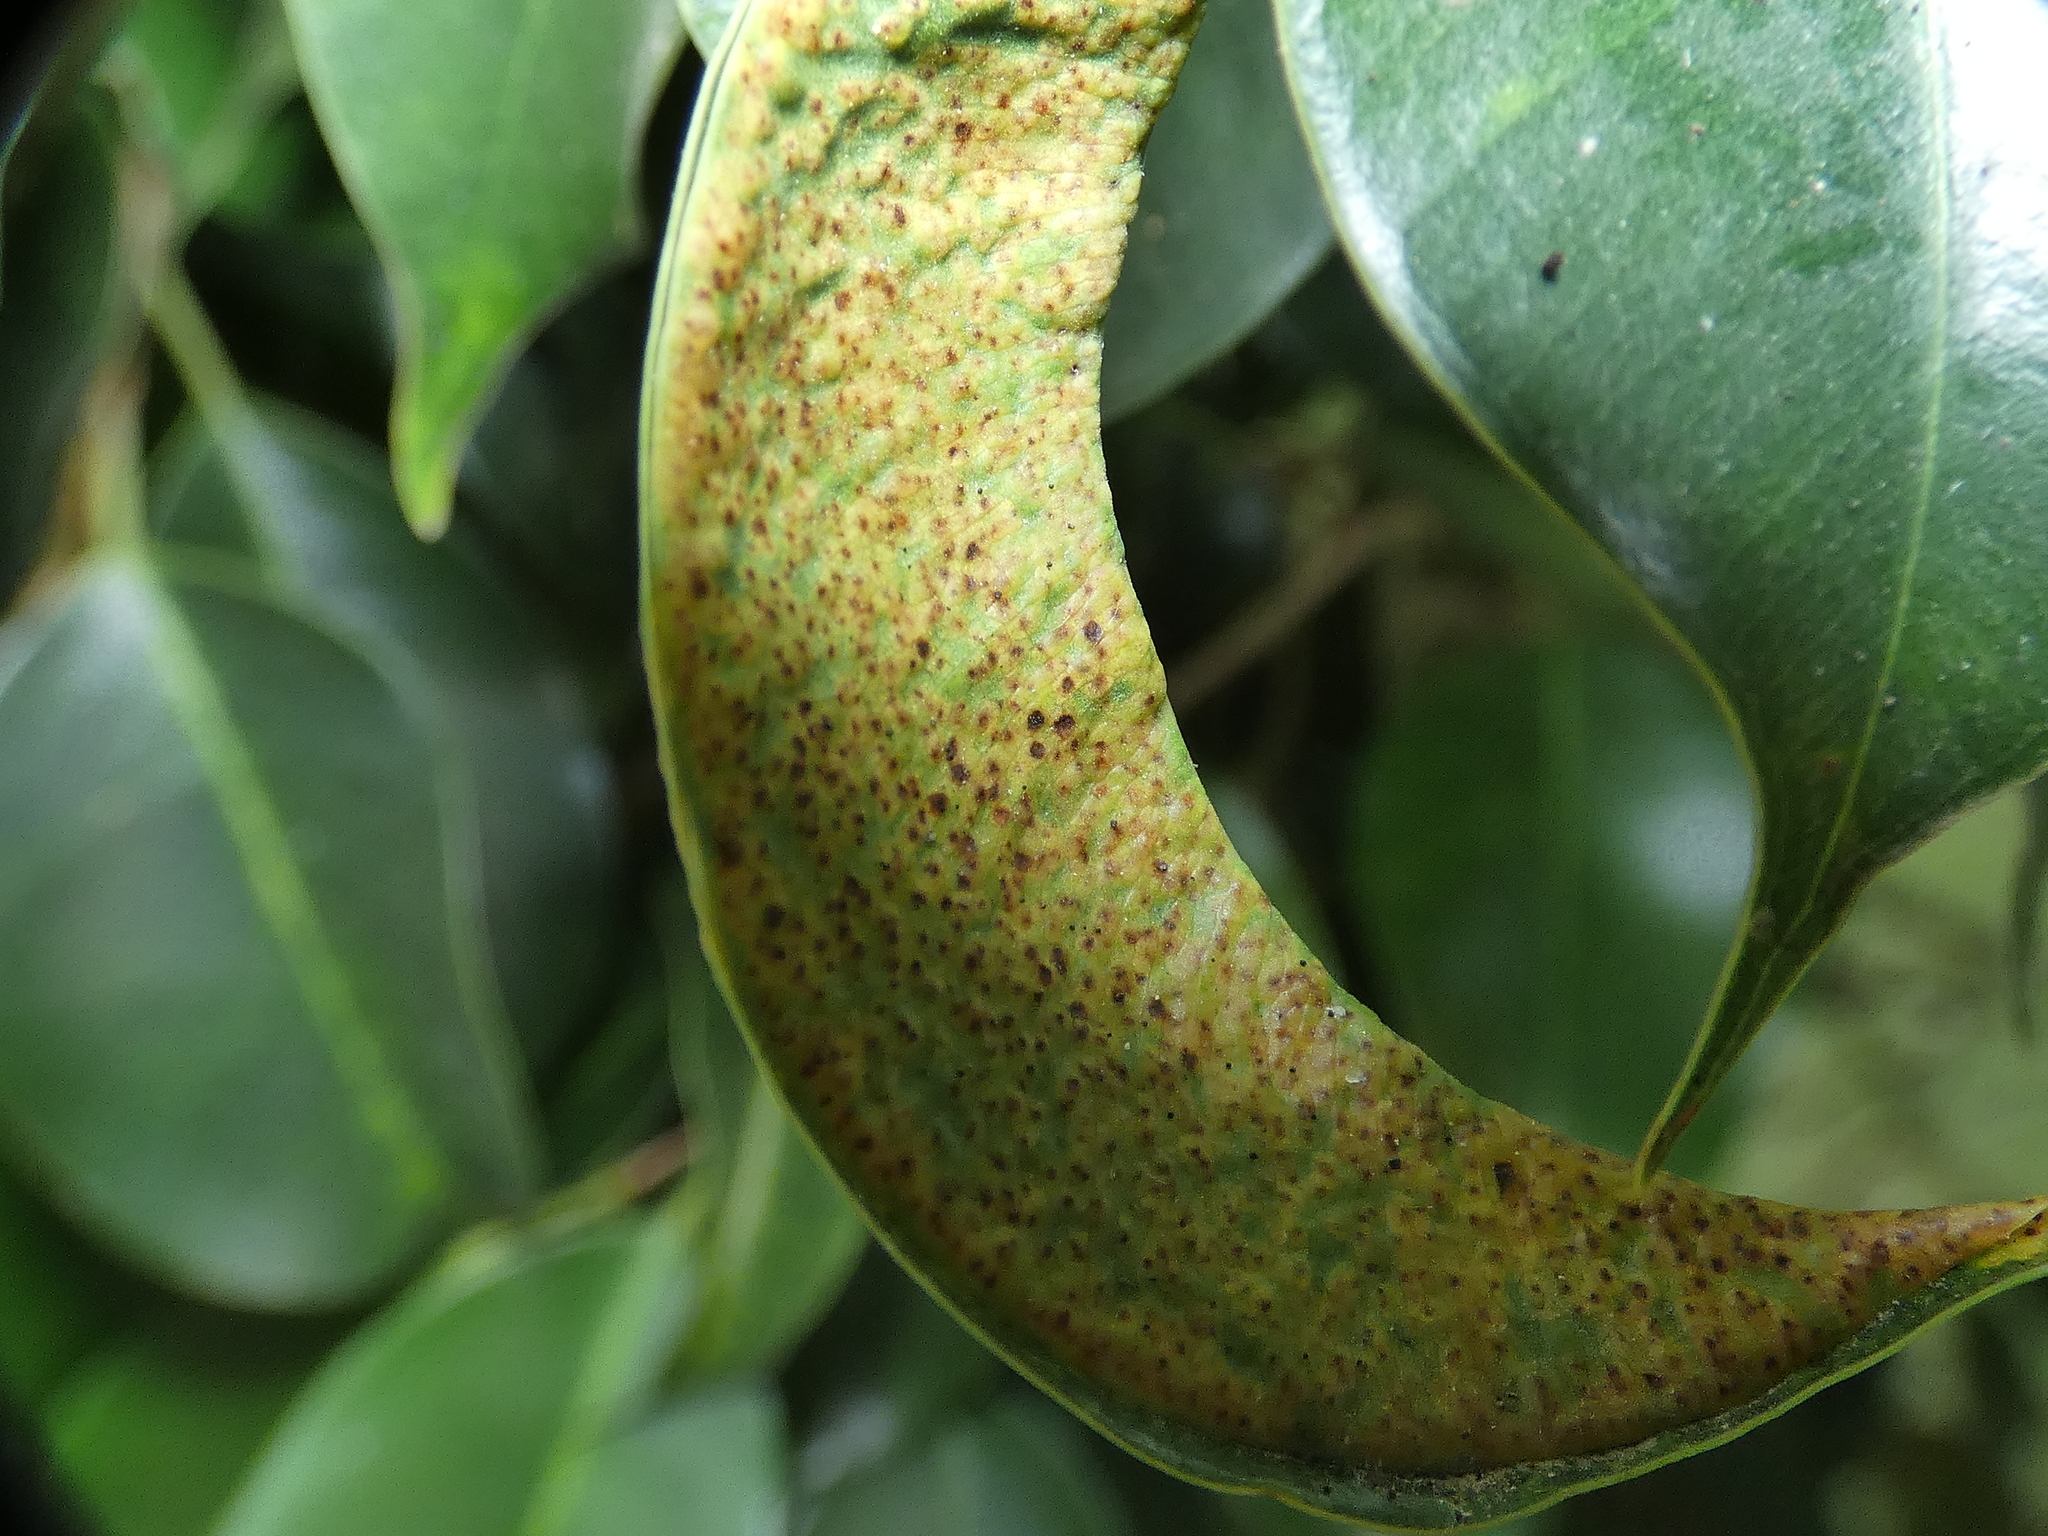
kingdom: Animalia
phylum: Arthropoda
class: Insecta
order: Thysanoptera
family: Phlaeothripidae
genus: Gynaikothrips
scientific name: Gynaikothrips ficorum
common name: Cuban laurel thrips
